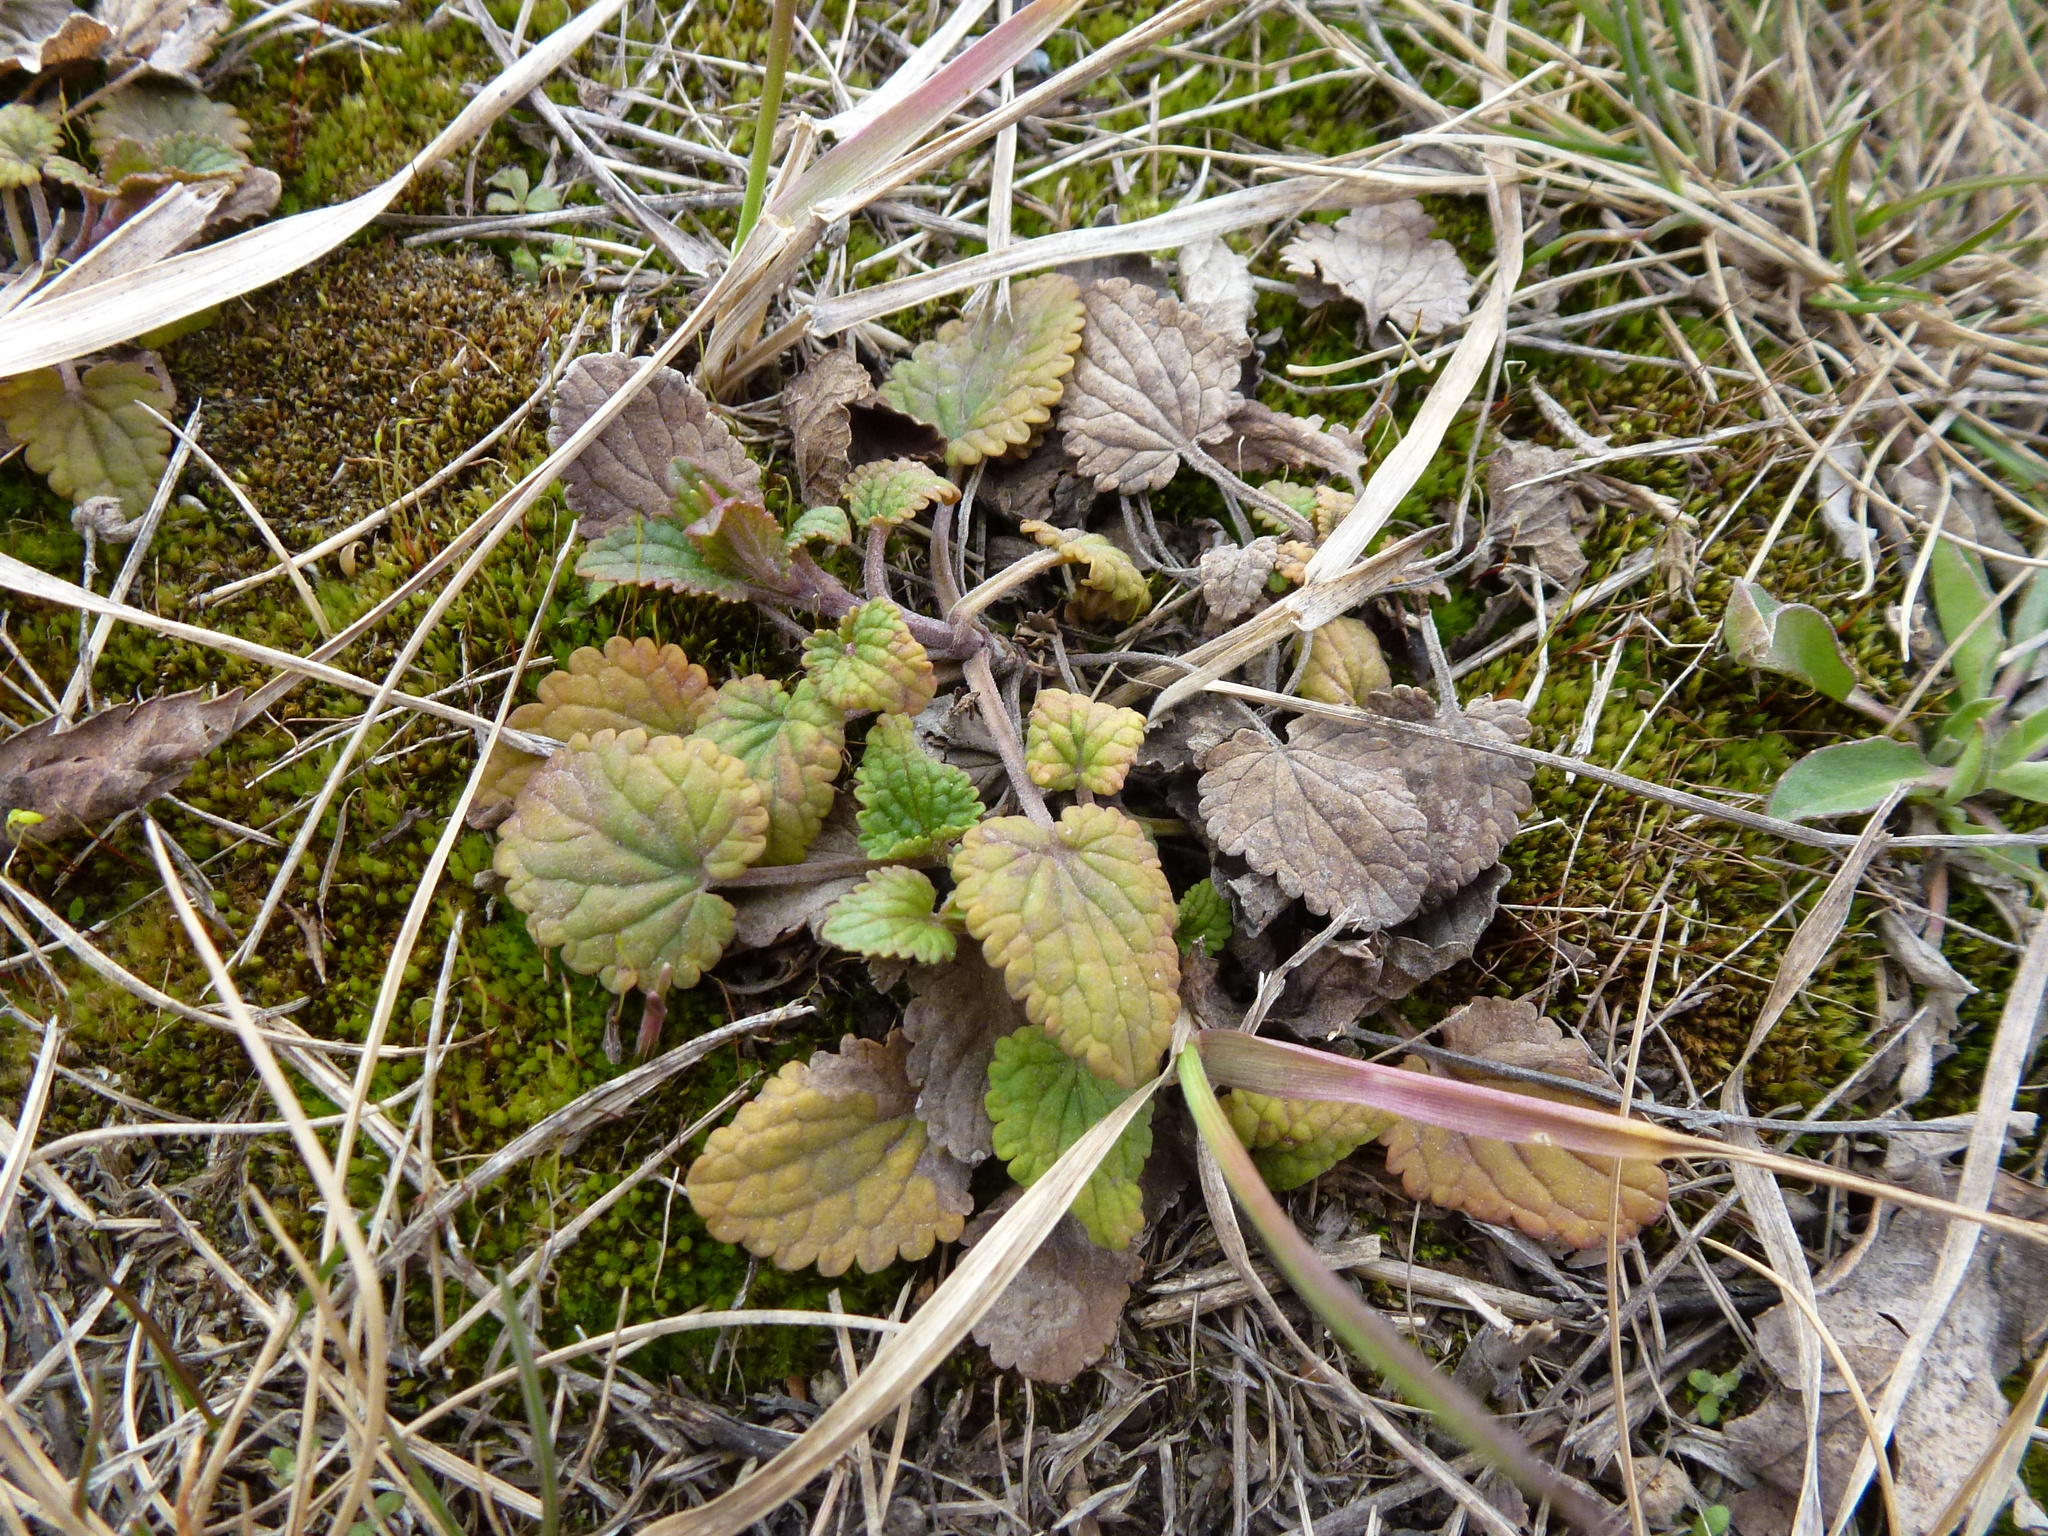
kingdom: Plantae
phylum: Tracheophyta
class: Magnoliopsida
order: Lamiales
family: Lamiaceae
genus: Dracocephalum
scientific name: Dracocephalum thymiflorum
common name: Thymeleaf dragonhead
